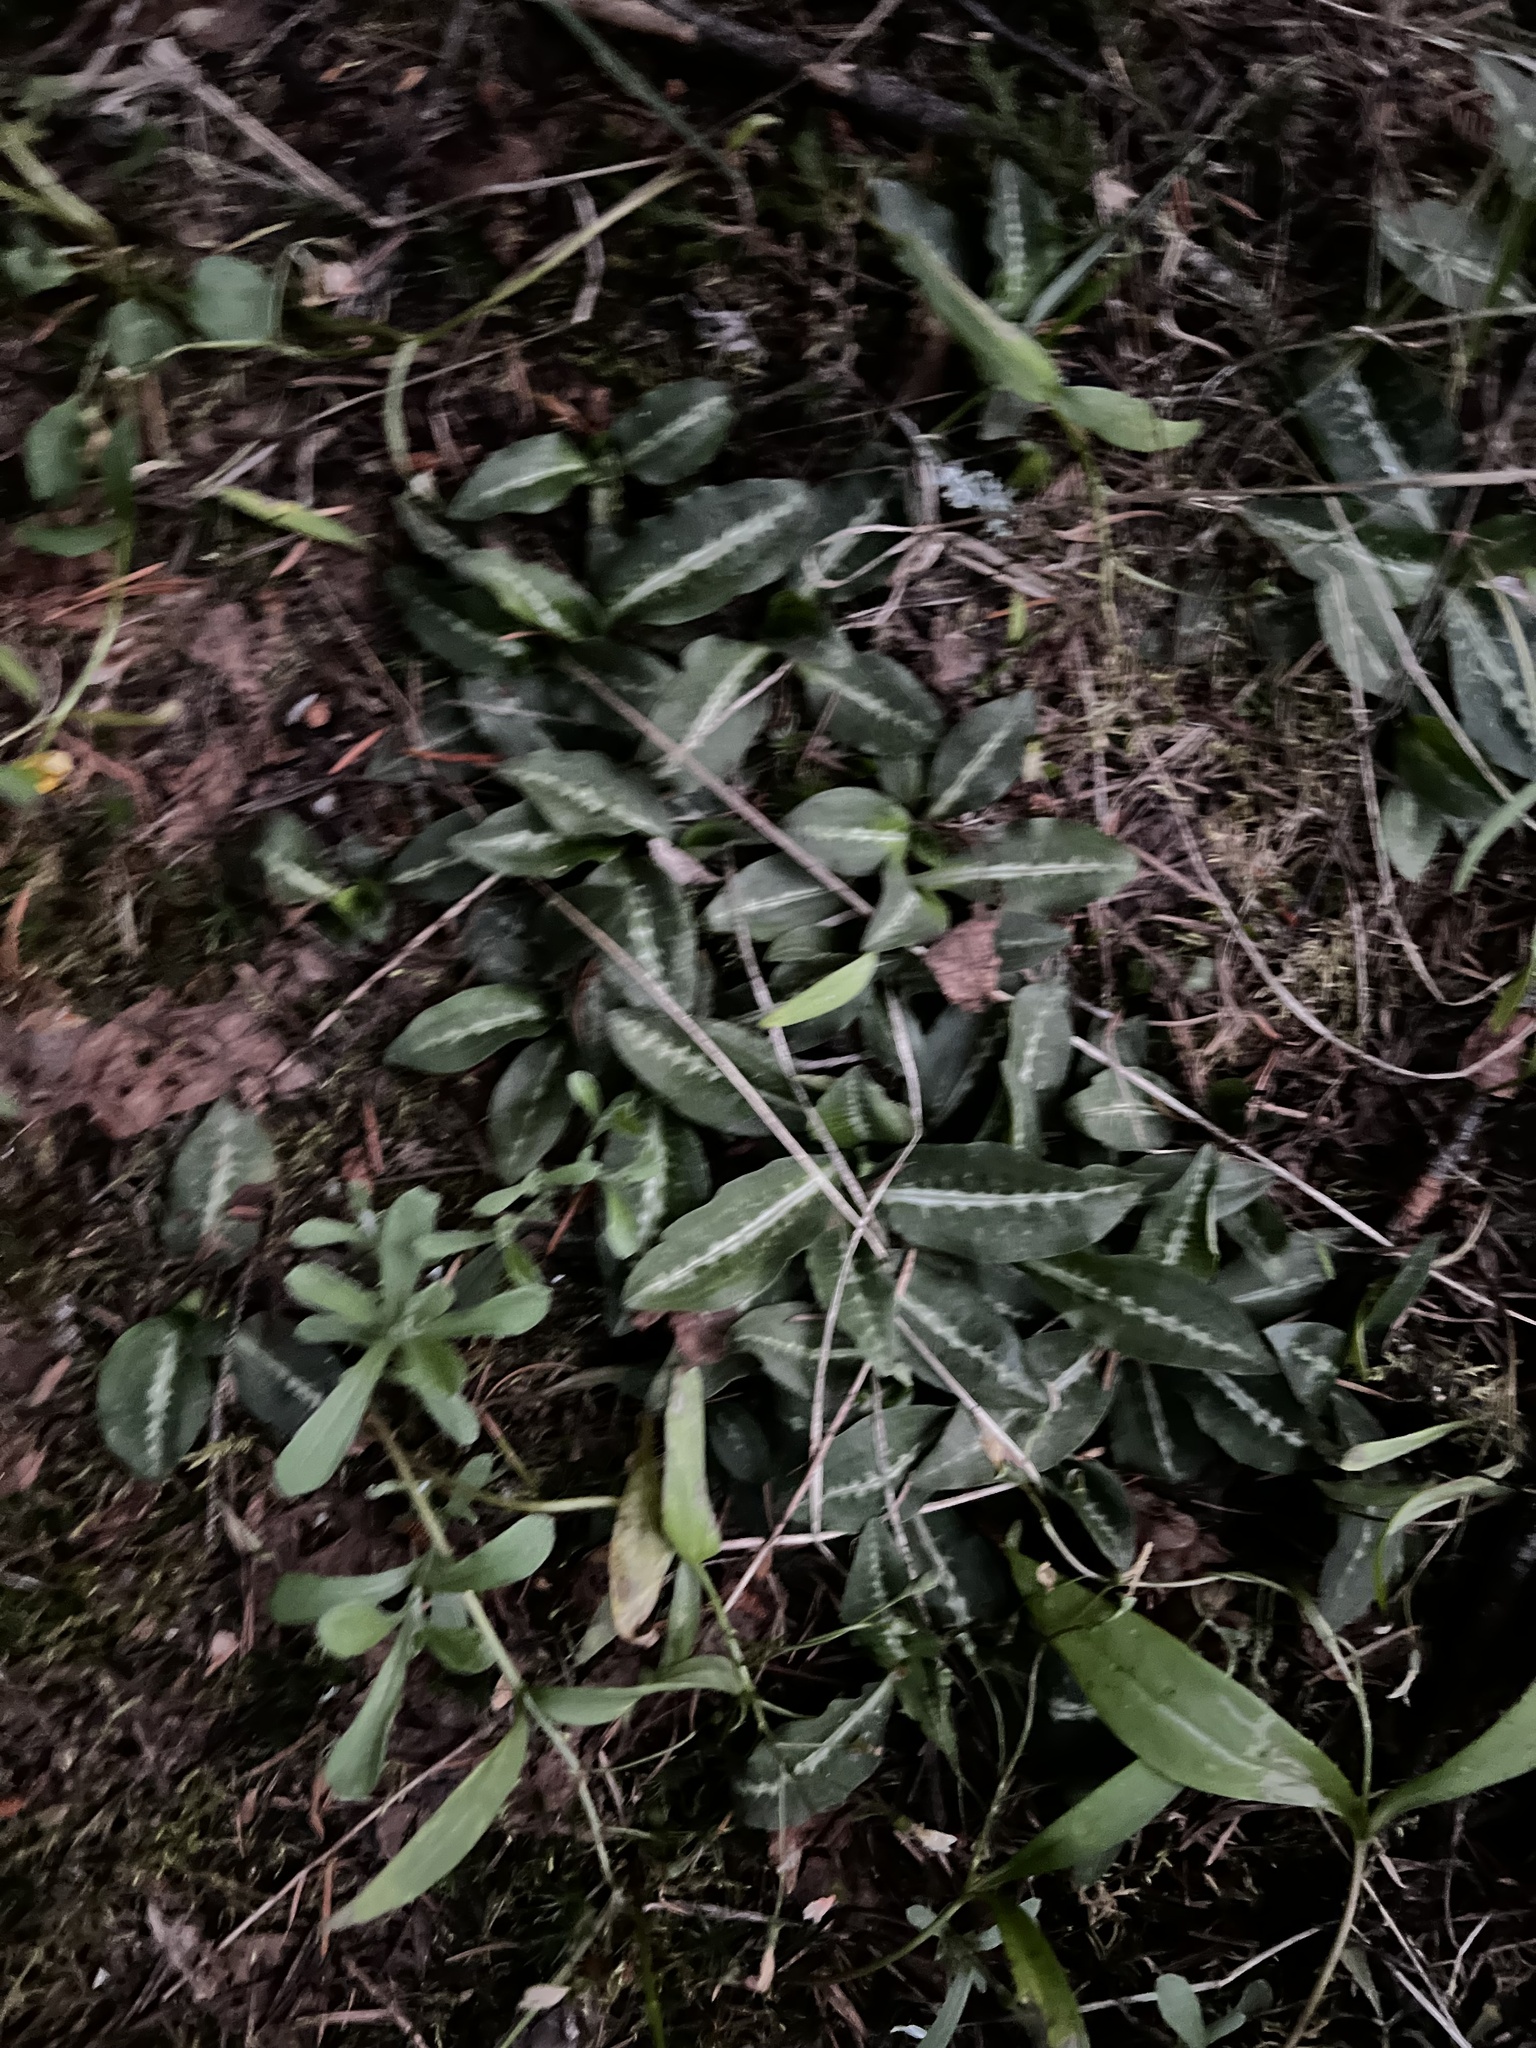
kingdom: Plantae
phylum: Tracheophyta
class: Liliopsida
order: Asparagales
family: Orchidaceae
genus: Goodyera
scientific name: Goodyera oblongifolia
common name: Giant rattlesnake-plantain
